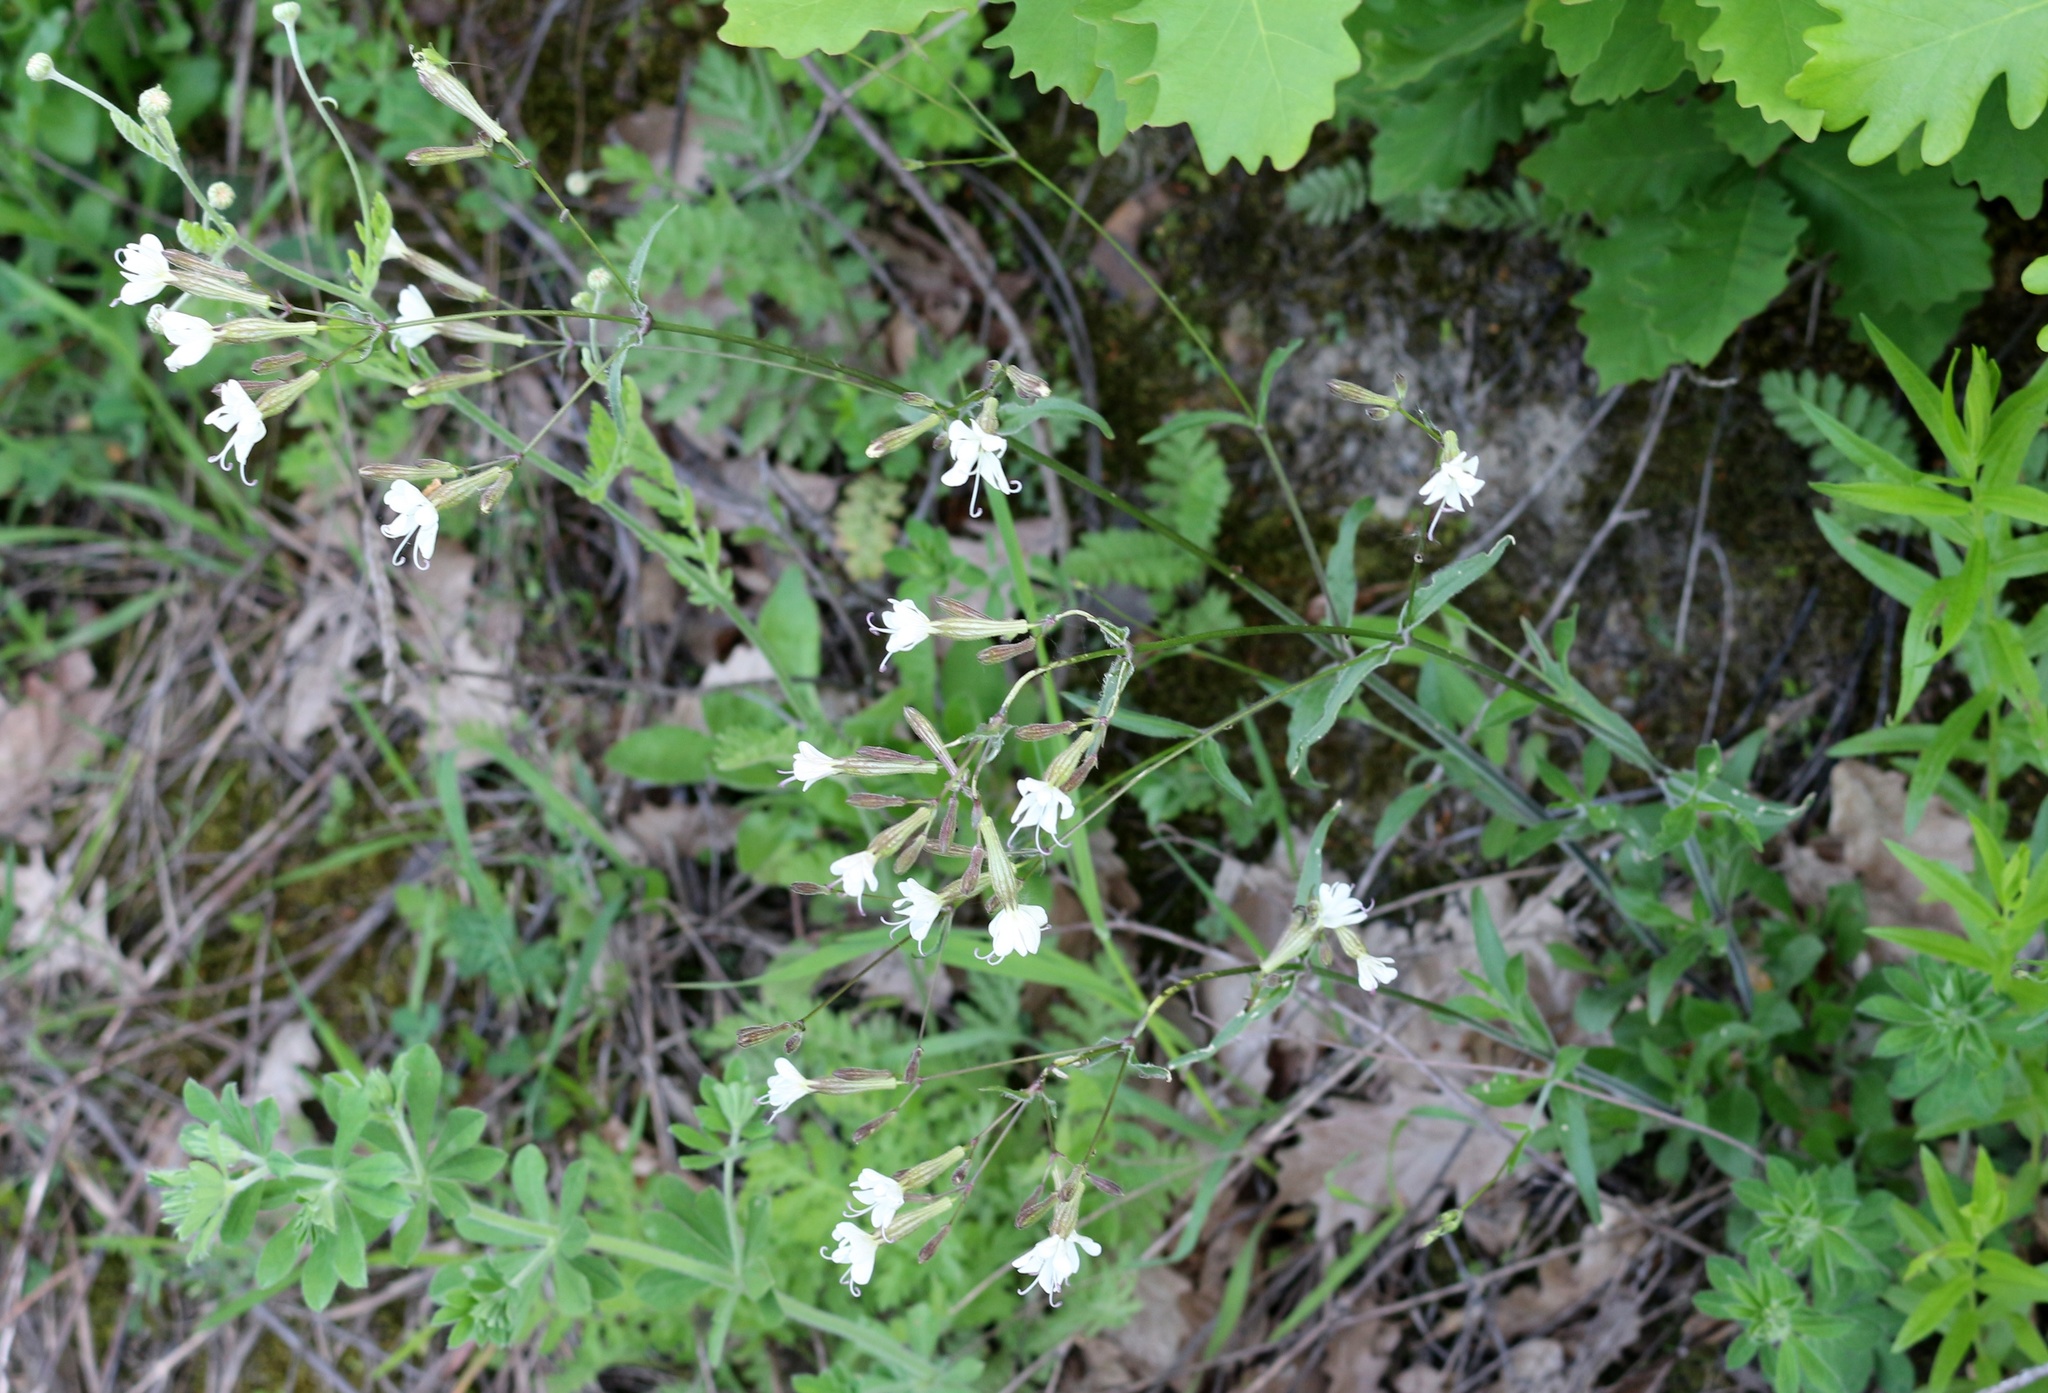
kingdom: Plantae
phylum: Tracheophyta
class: Magnoliopsida
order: Caryophyllales
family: Caryophyllaceae
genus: Silene
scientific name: Silene italica
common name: Italian catchfly
